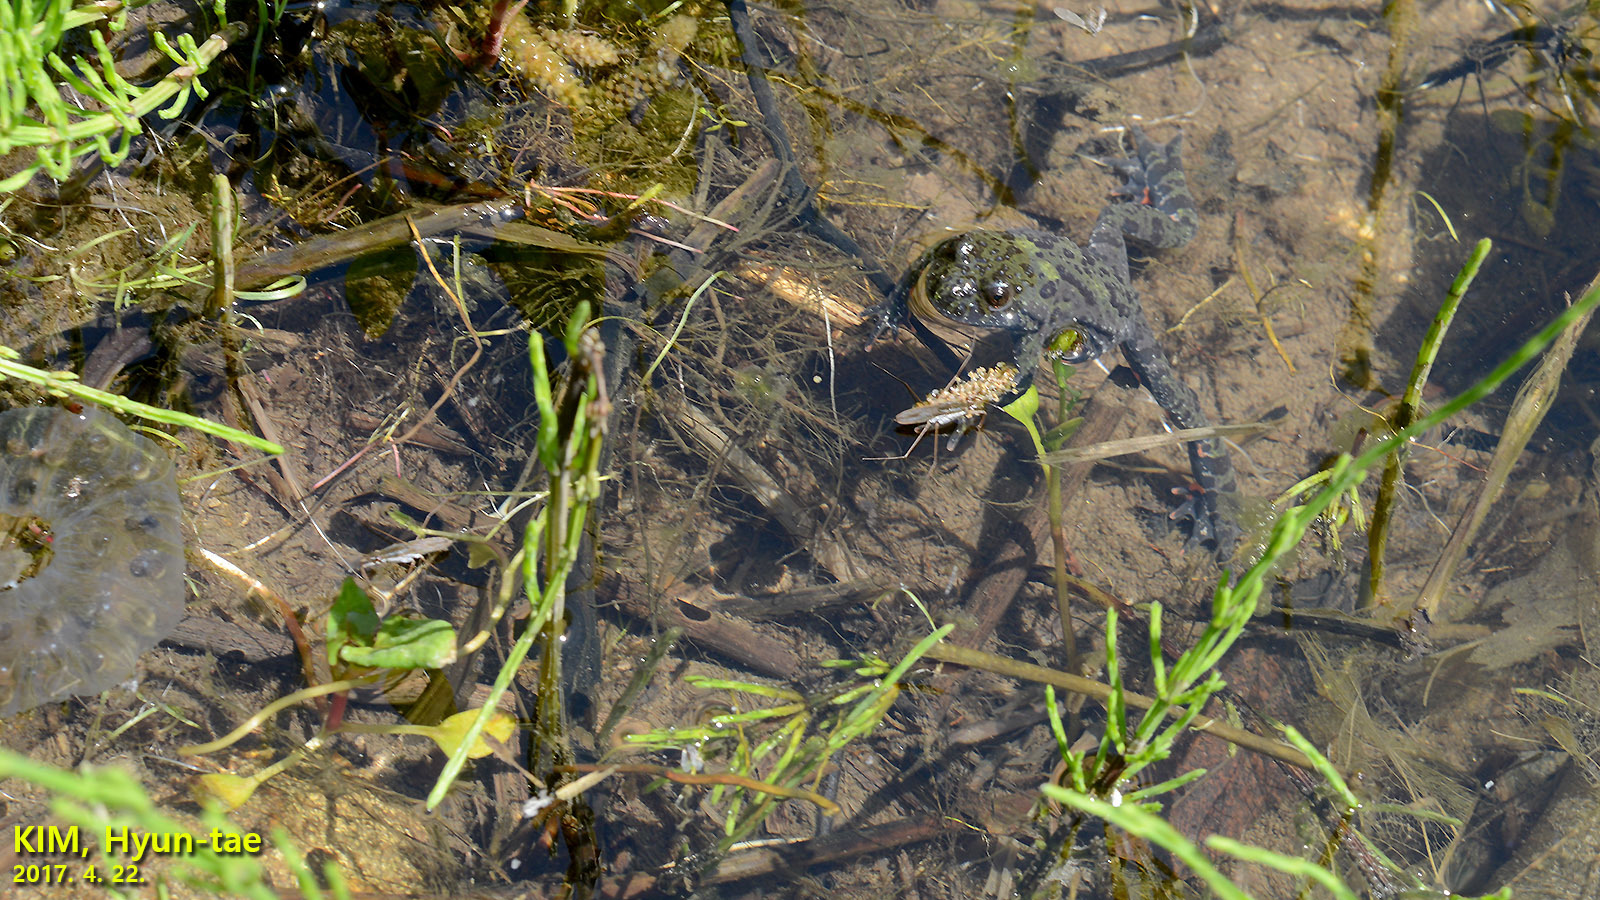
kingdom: Animalia
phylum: Chordata
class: Amphibia
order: Anura
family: Bombinatoridae
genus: Bombina
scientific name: Bombina orientalis
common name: Oriental firebelly toad
